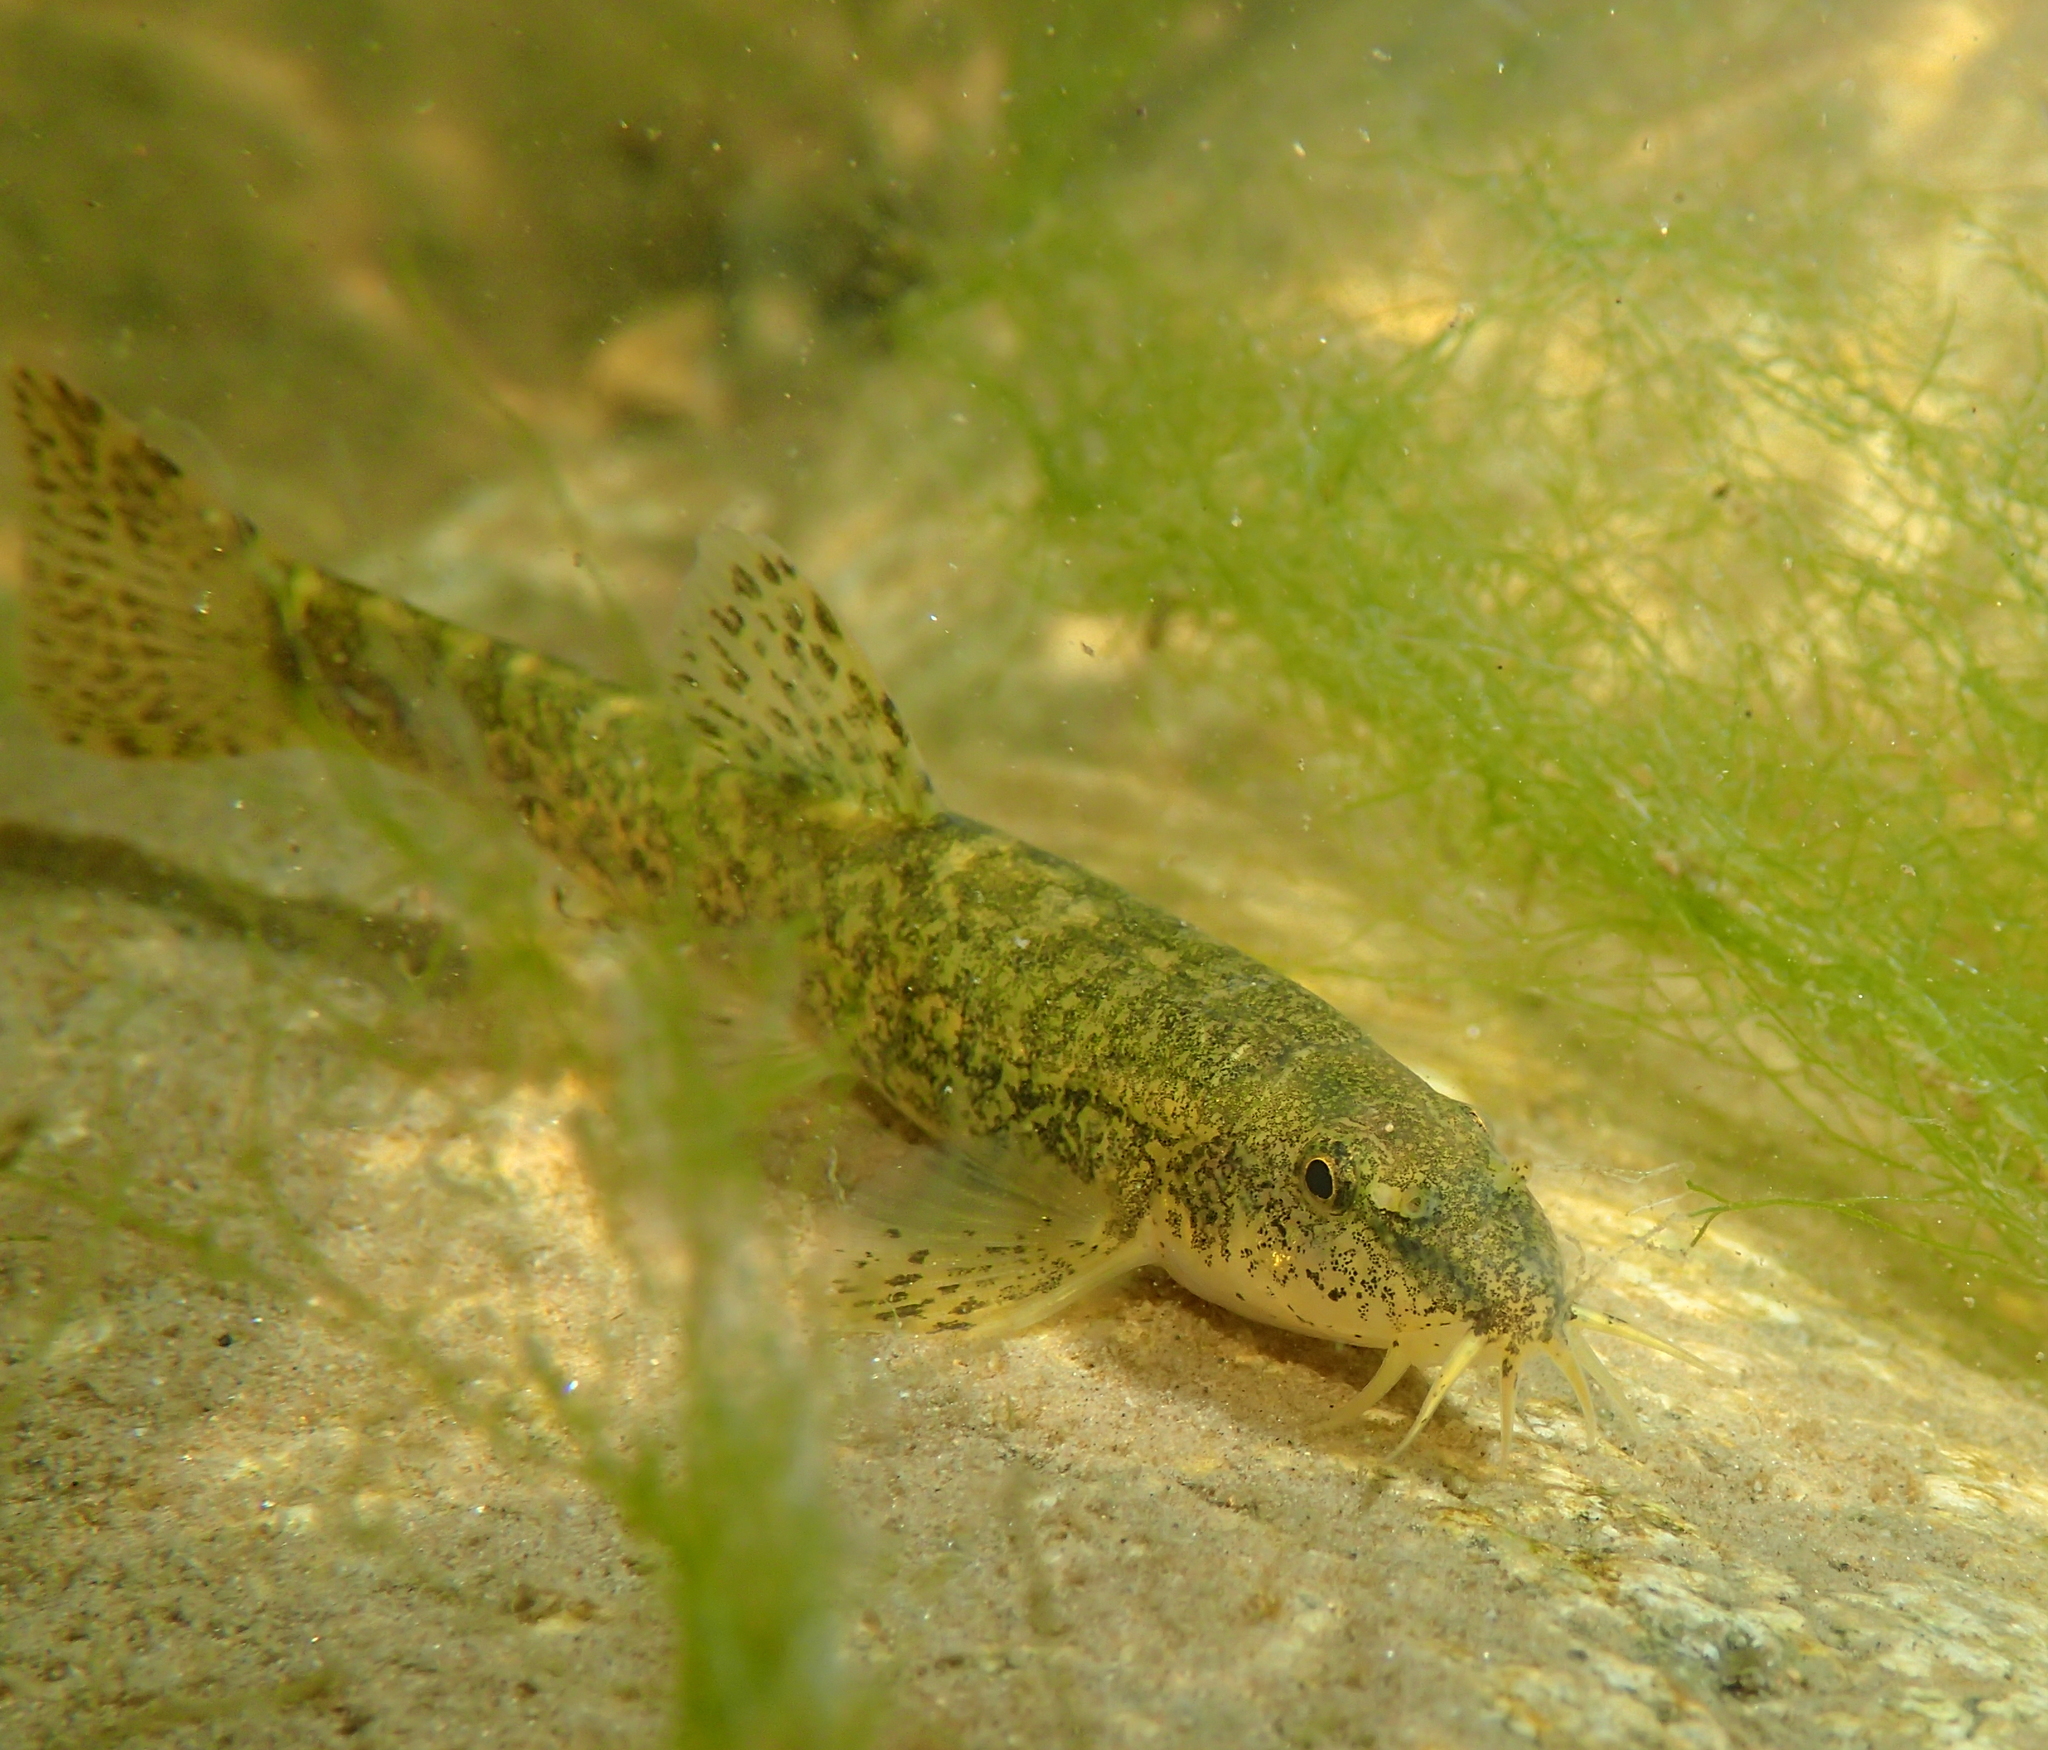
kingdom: Animalia
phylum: Chordata
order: Cypriniformes
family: Nemacheilidae
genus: Barbatula
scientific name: Barbatula barbatula
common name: Stone loach
